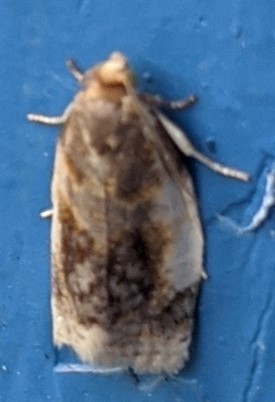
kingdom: Animalia
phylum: Arthropoda
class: Insecta
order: Lepidoptera
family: Tortricidae
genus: Clepsis
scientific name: Clepsis melaleucanus
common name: American apple tortrix
